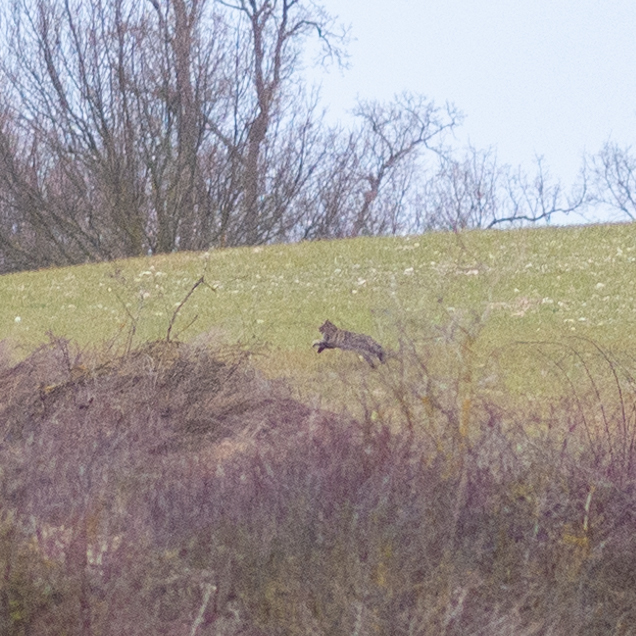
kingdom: Animalia
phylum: Chordata
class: Mammalia
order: Carnivora
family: Felidae
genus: Felis
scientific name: Felis silvestris
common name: Wildcat
